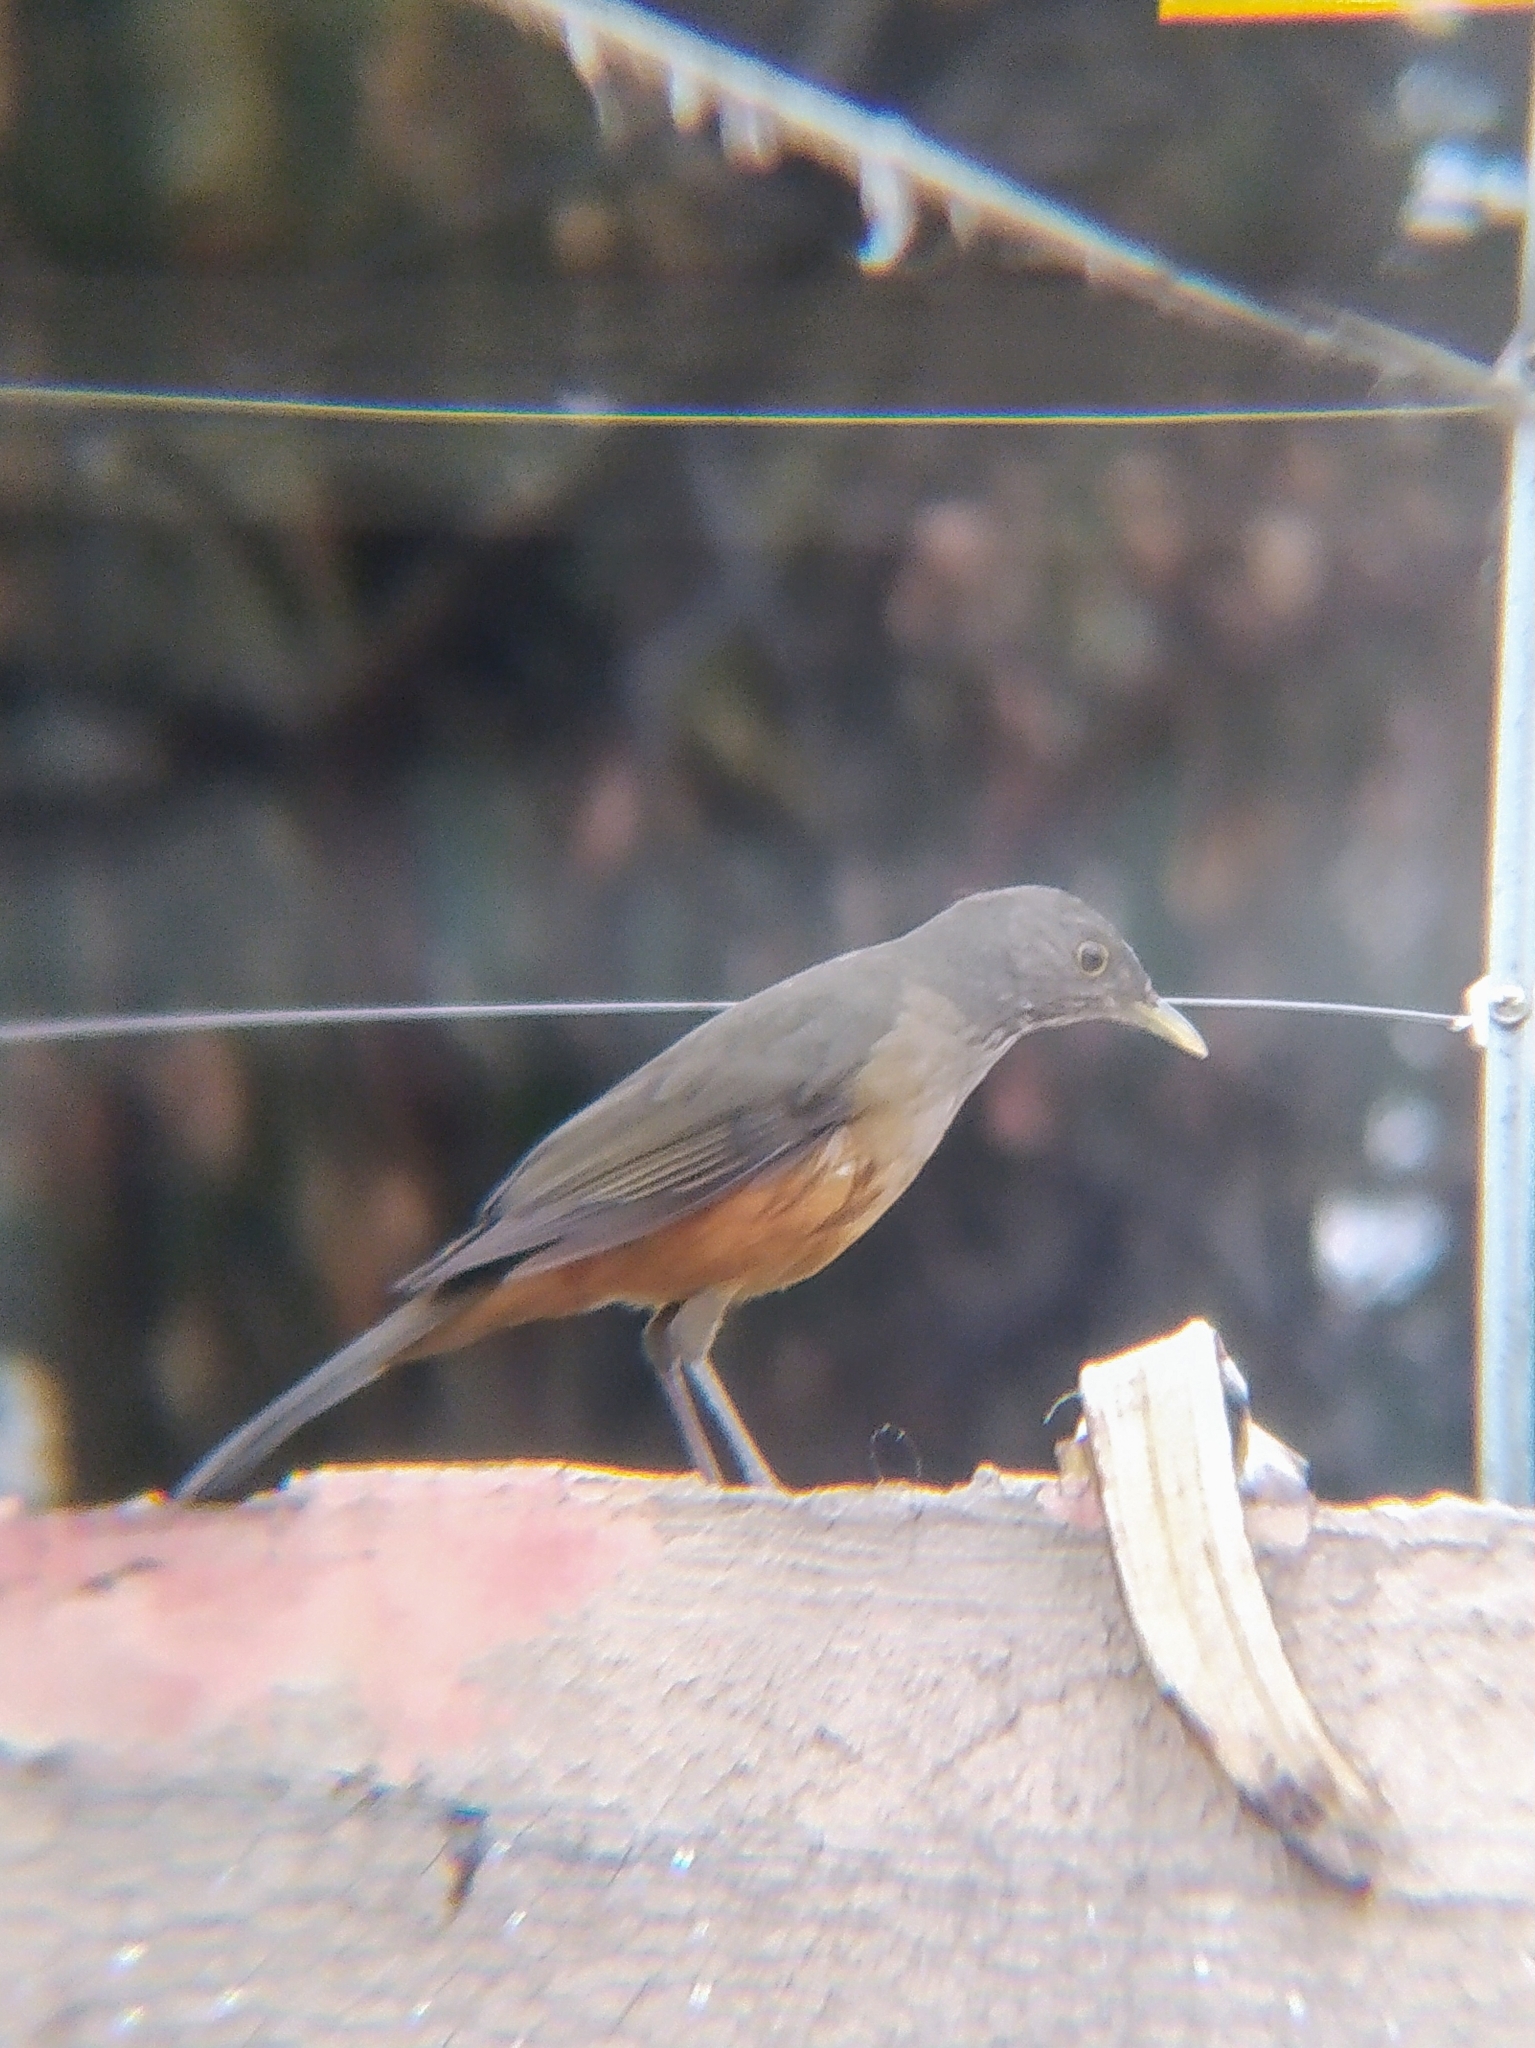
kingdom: Animalia
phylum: Chordata
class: Aves
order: Passeriformes
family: Turdidae
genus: Turdus
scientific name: Turdus rufiventris
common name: Rufous-bellied thrush
